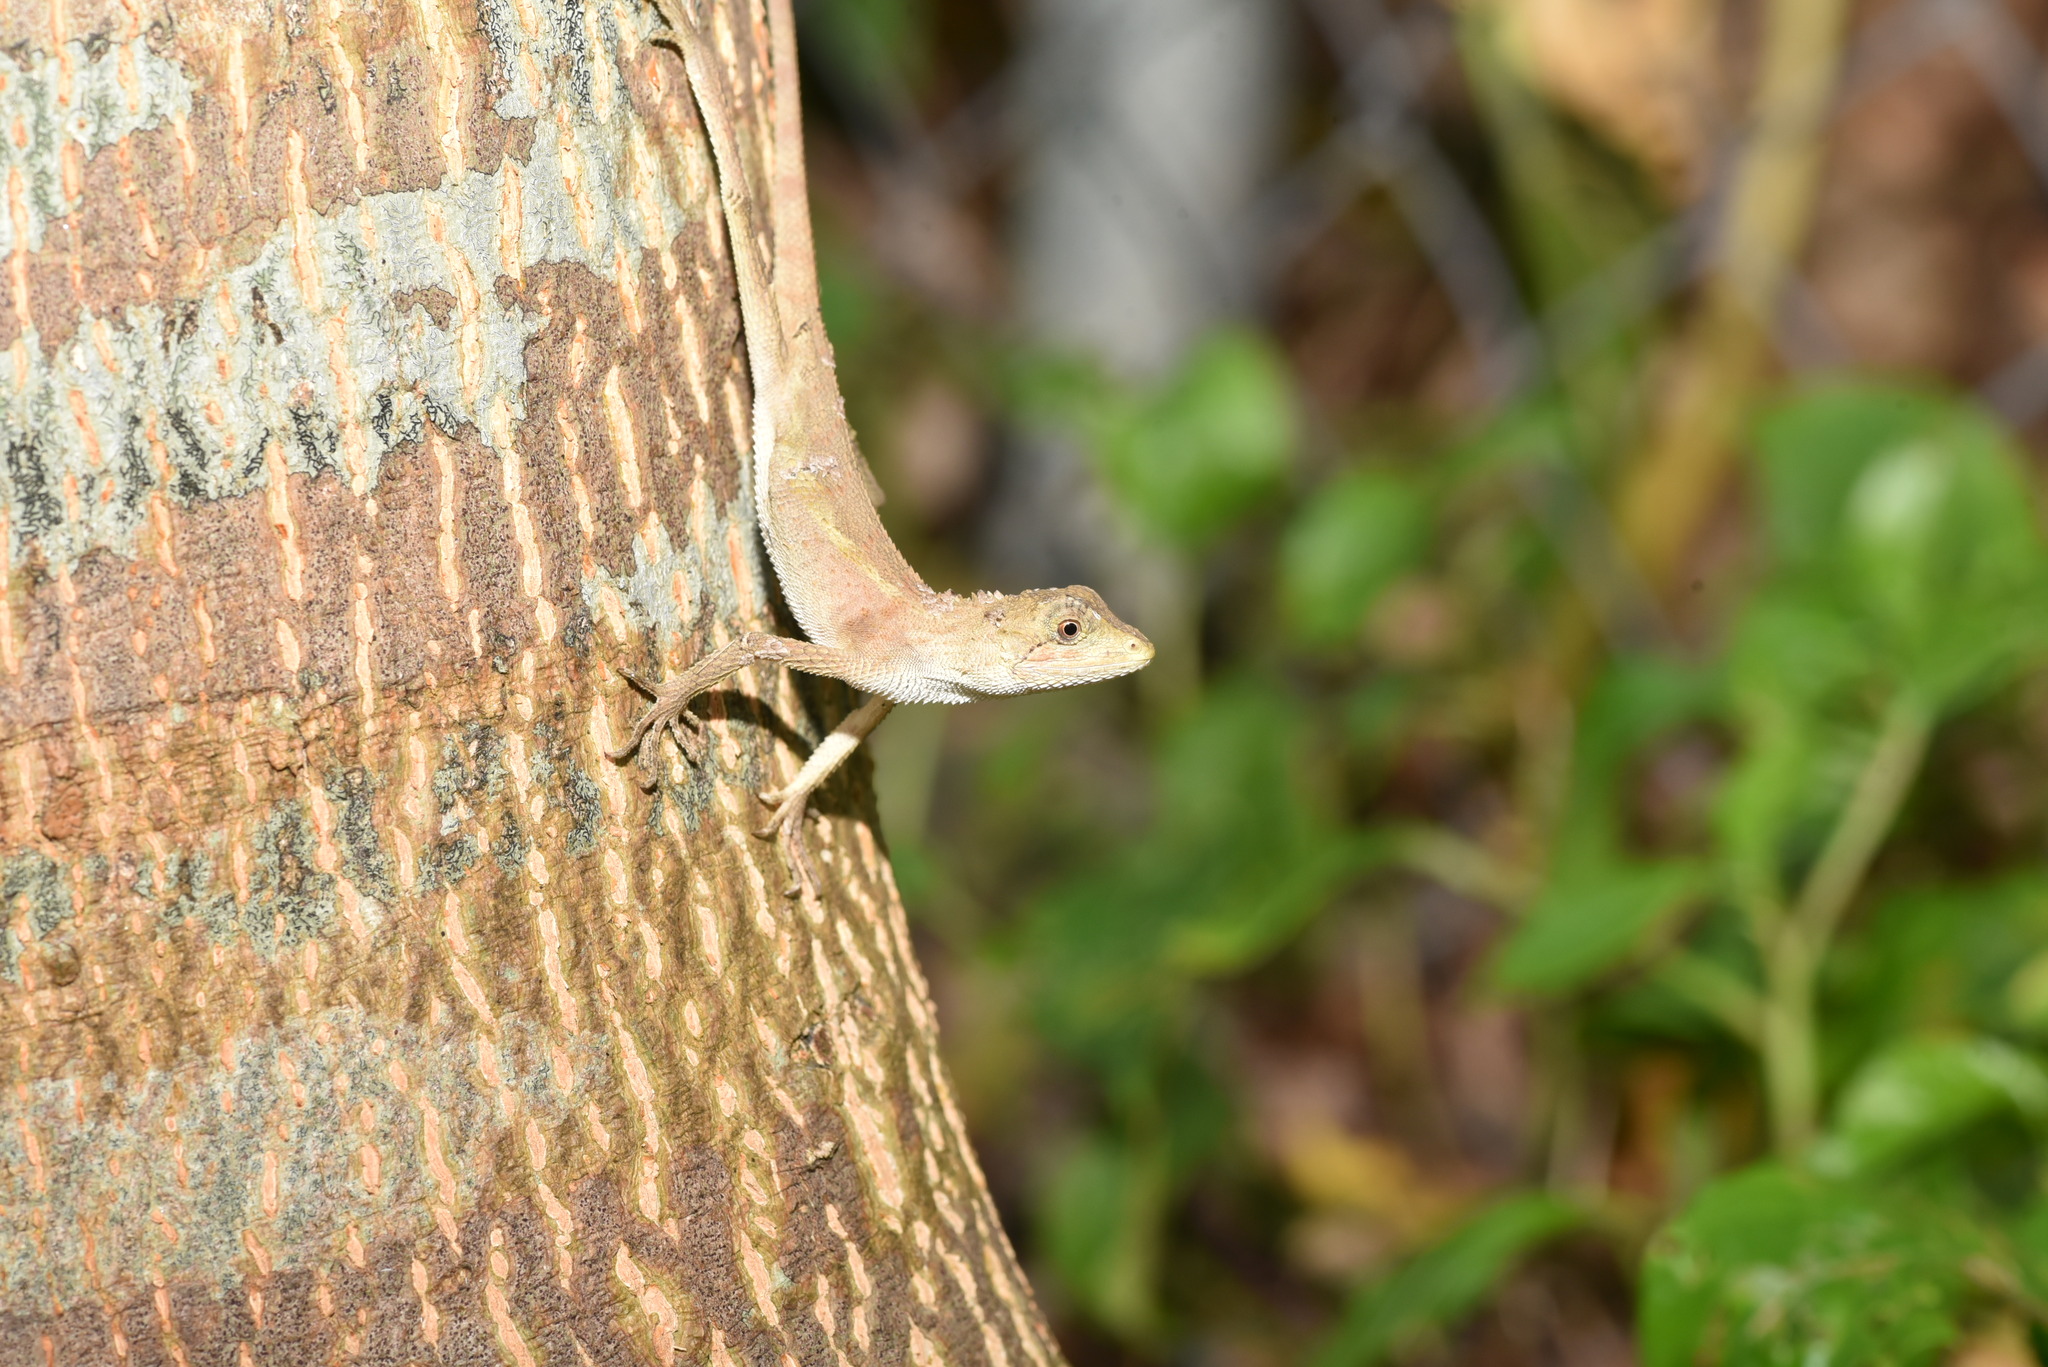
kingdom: Animalia
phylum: Chordata
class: Squamata
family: Agamidae
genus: Diploderma
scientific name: Diploderma swinhonis
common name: Taiwan japalure
